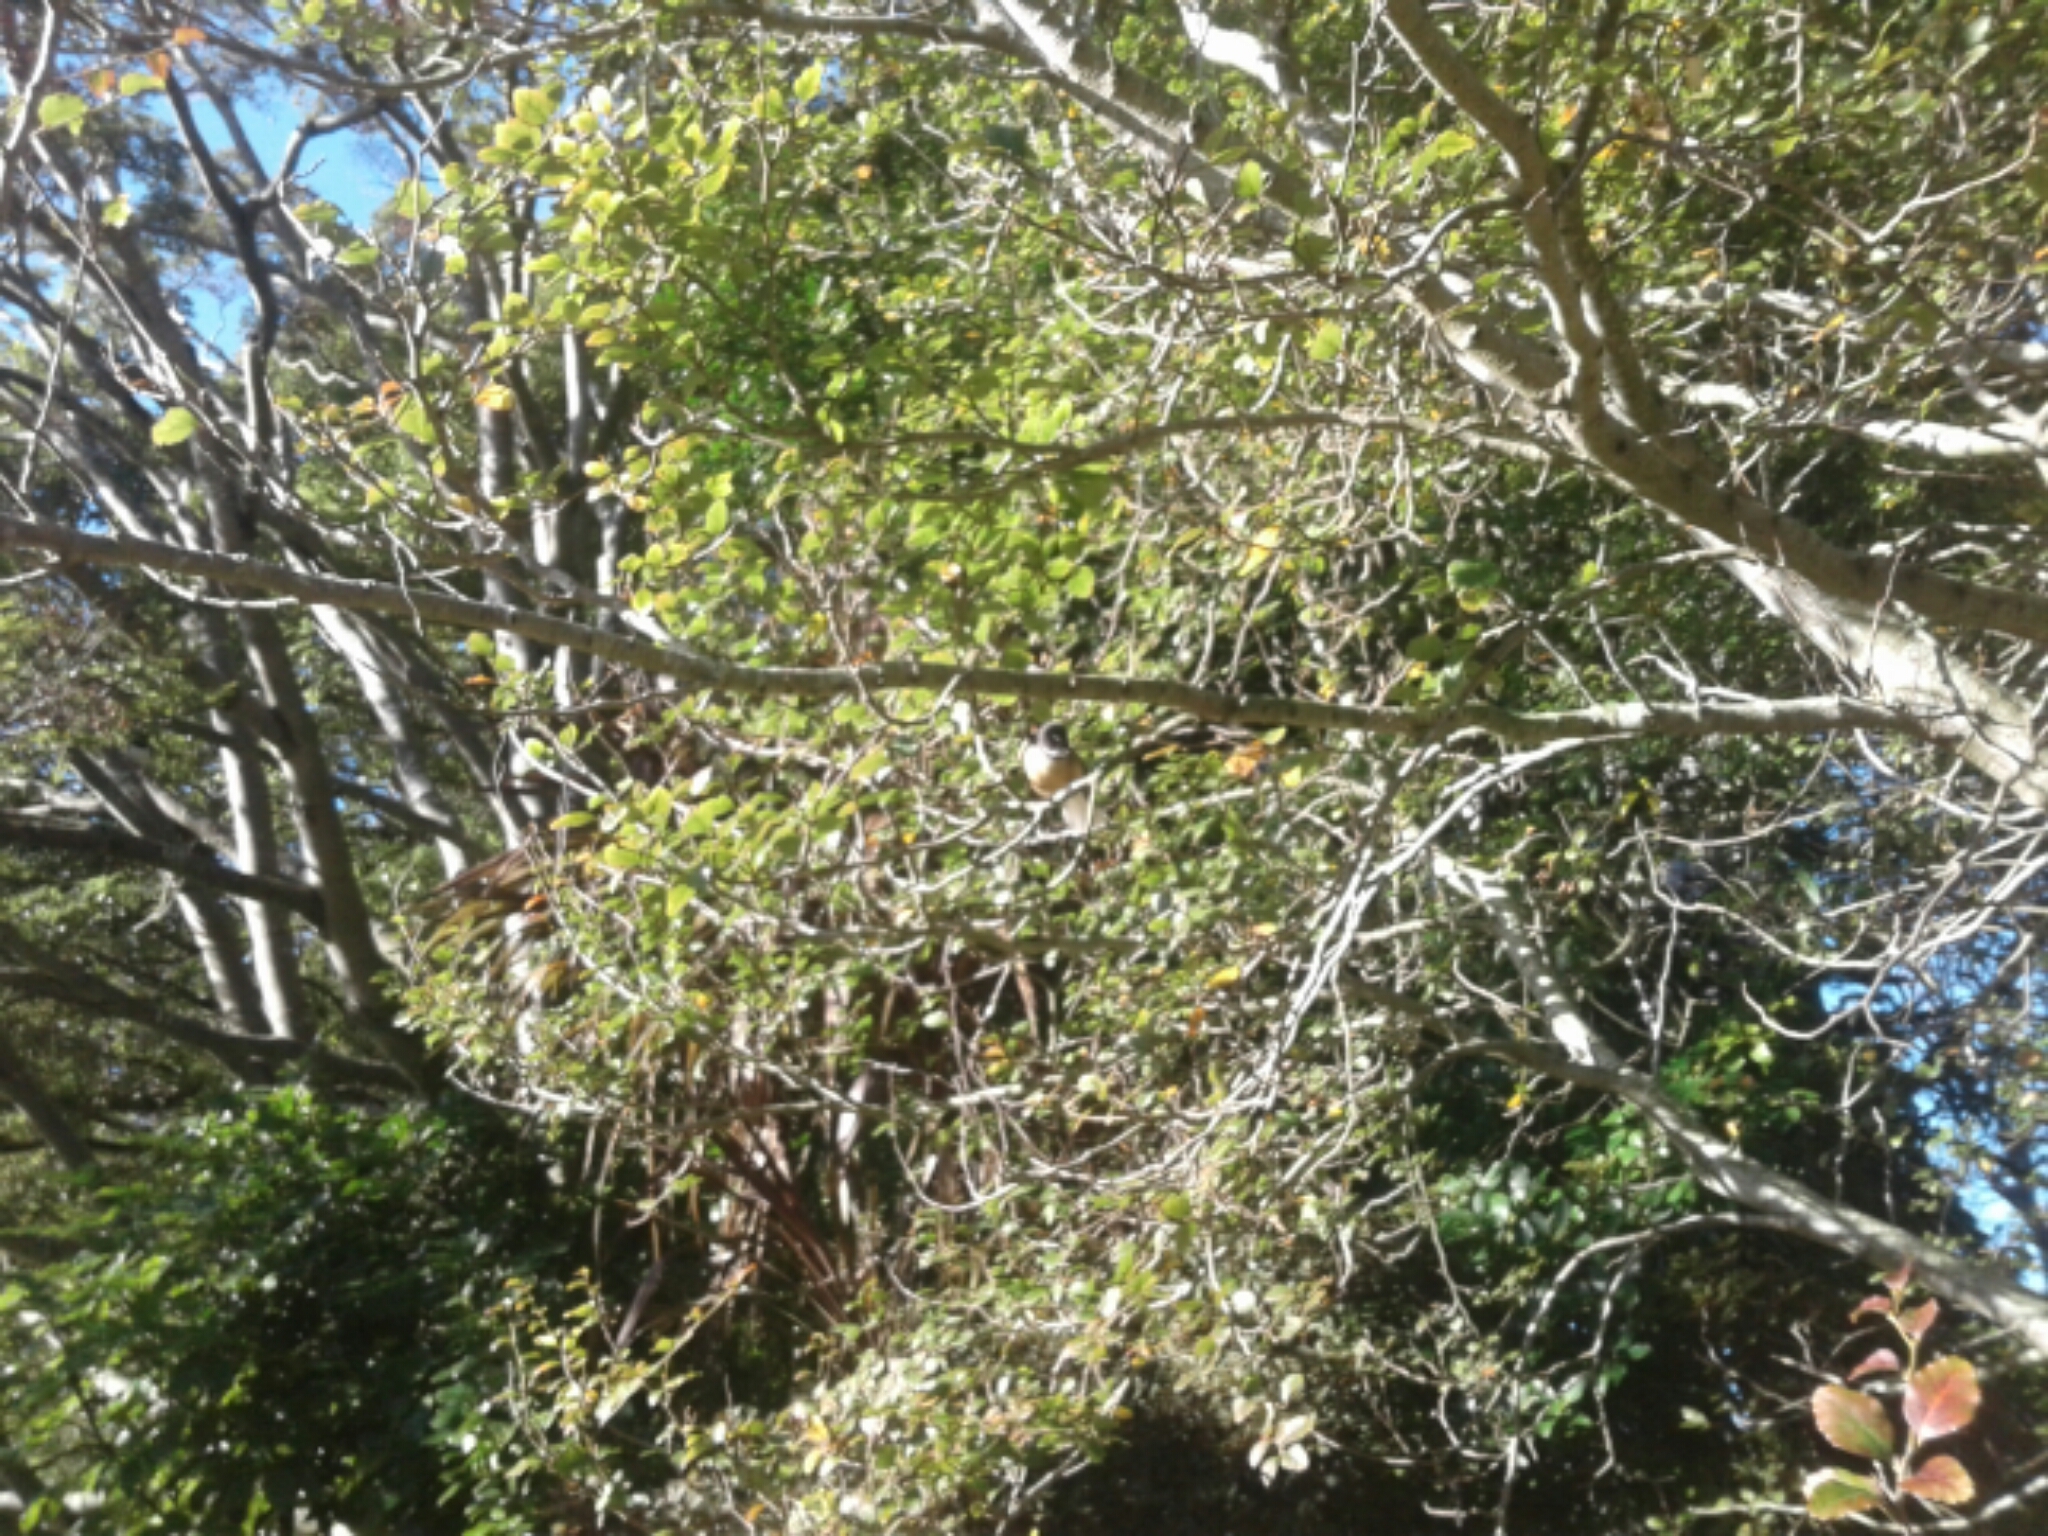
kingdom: Animalia
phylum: Chordata
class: Aves
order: Passeriformes
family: Rhipiduridae
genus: Rhipidura
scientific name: Rhipidura fuliginosa
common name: New zealand fantail
